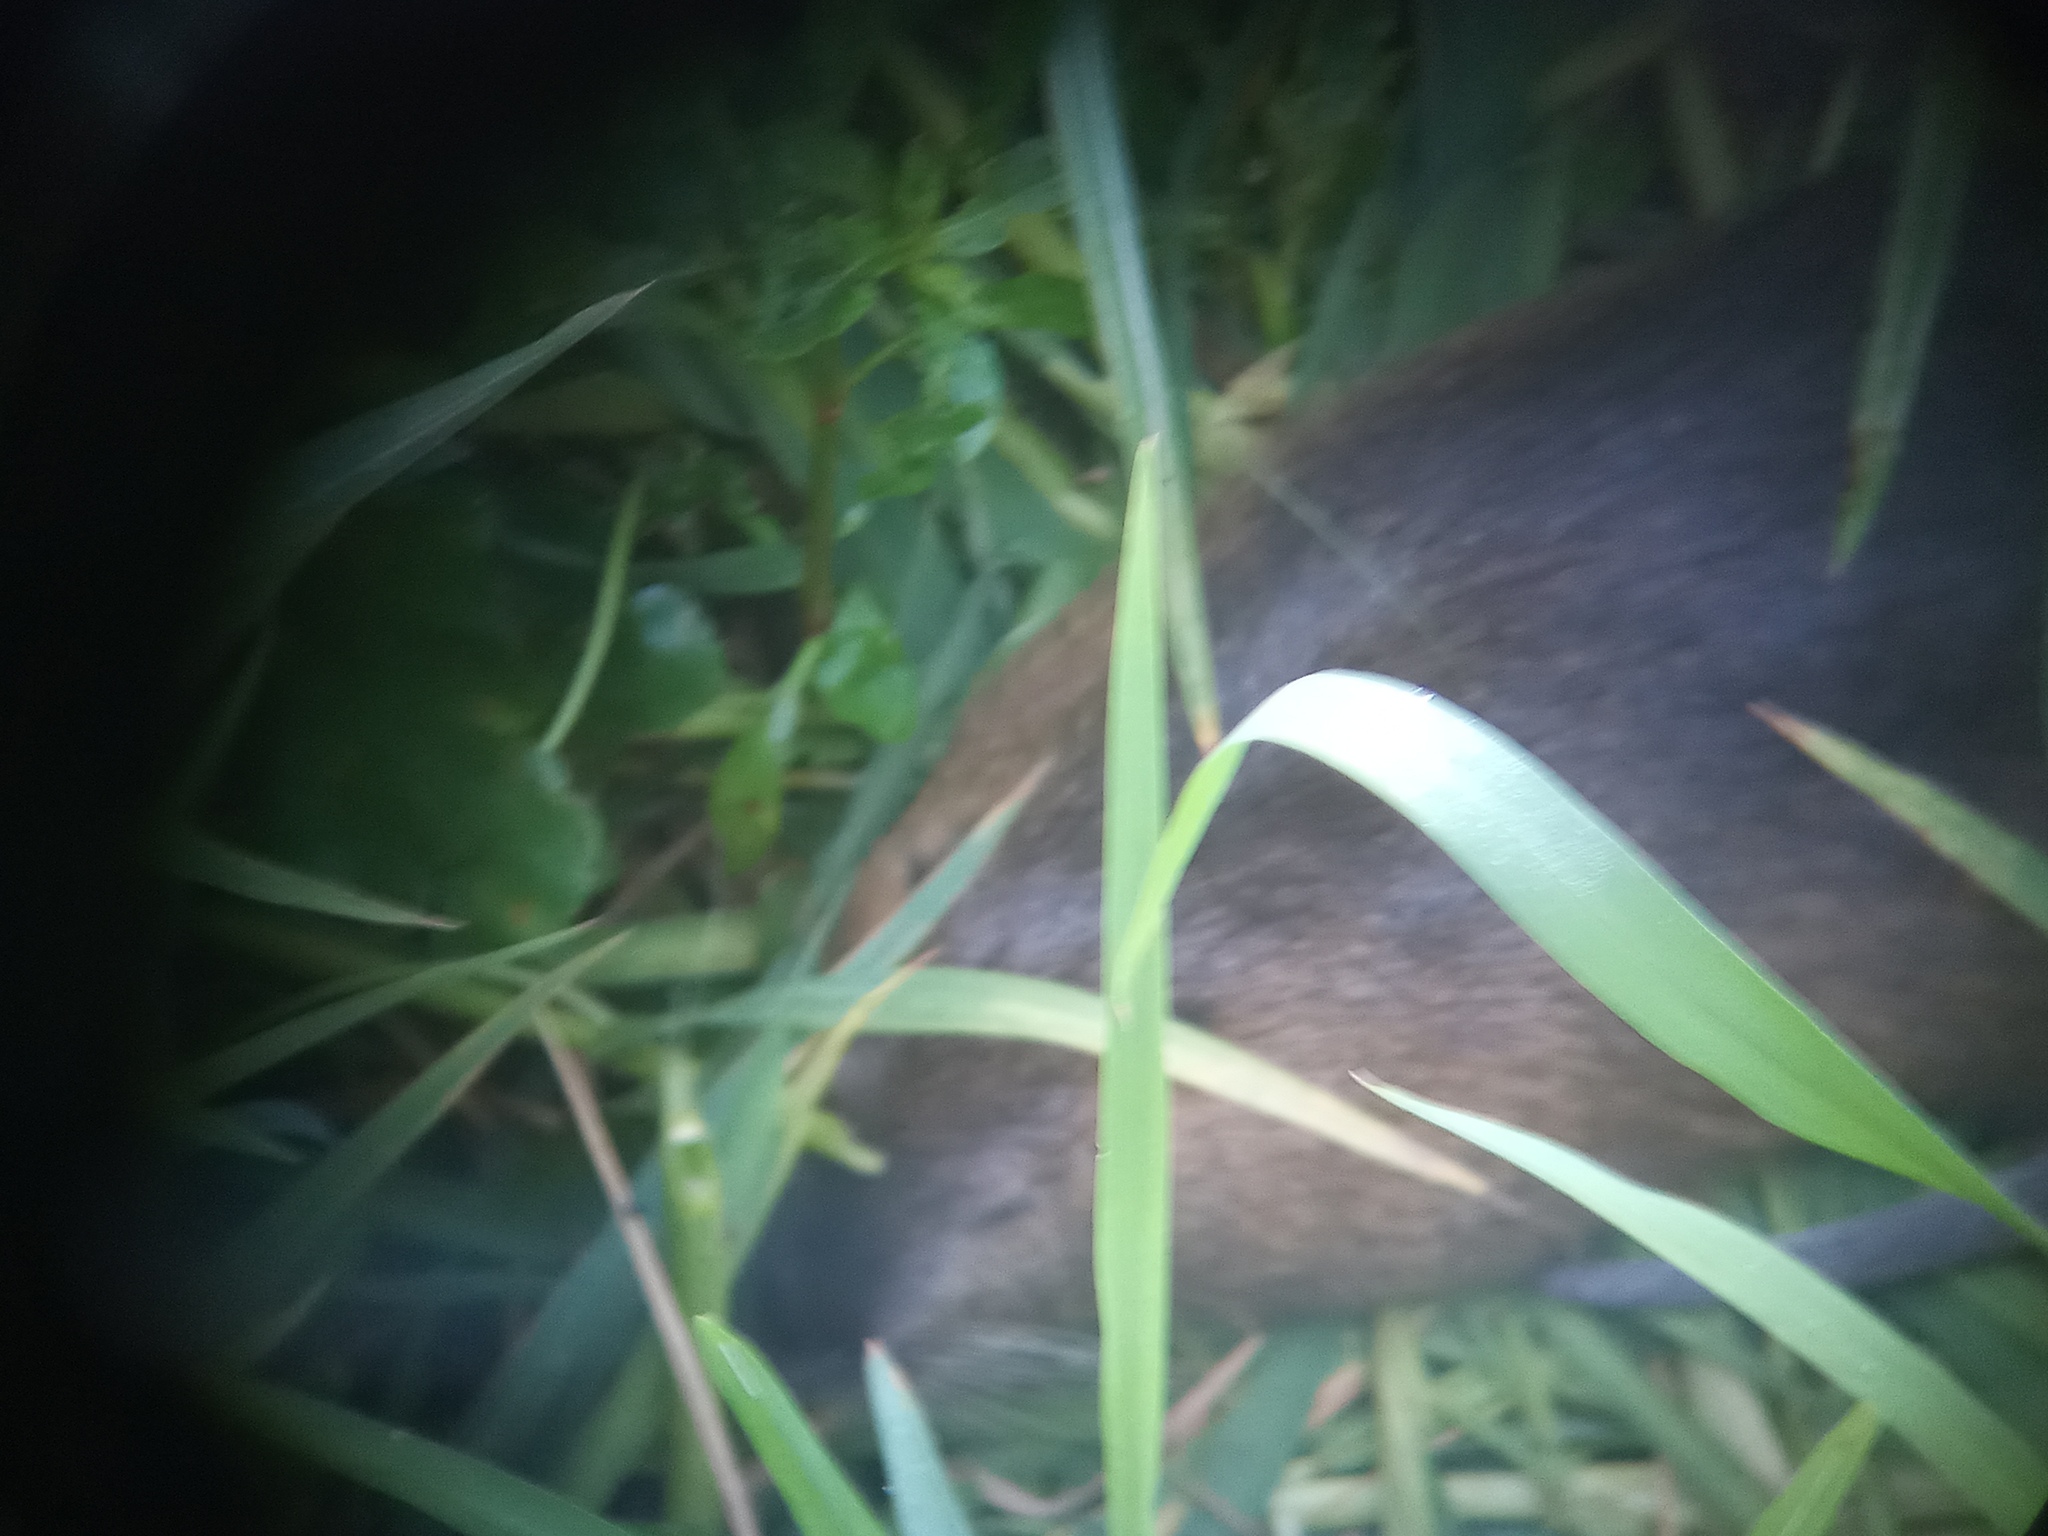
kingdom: Animalia
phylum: Chordata
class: Mammalia
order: Rodentia
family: Myocastoridae
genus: Myocastor
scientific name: Myocastor coypus
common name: Coypu
